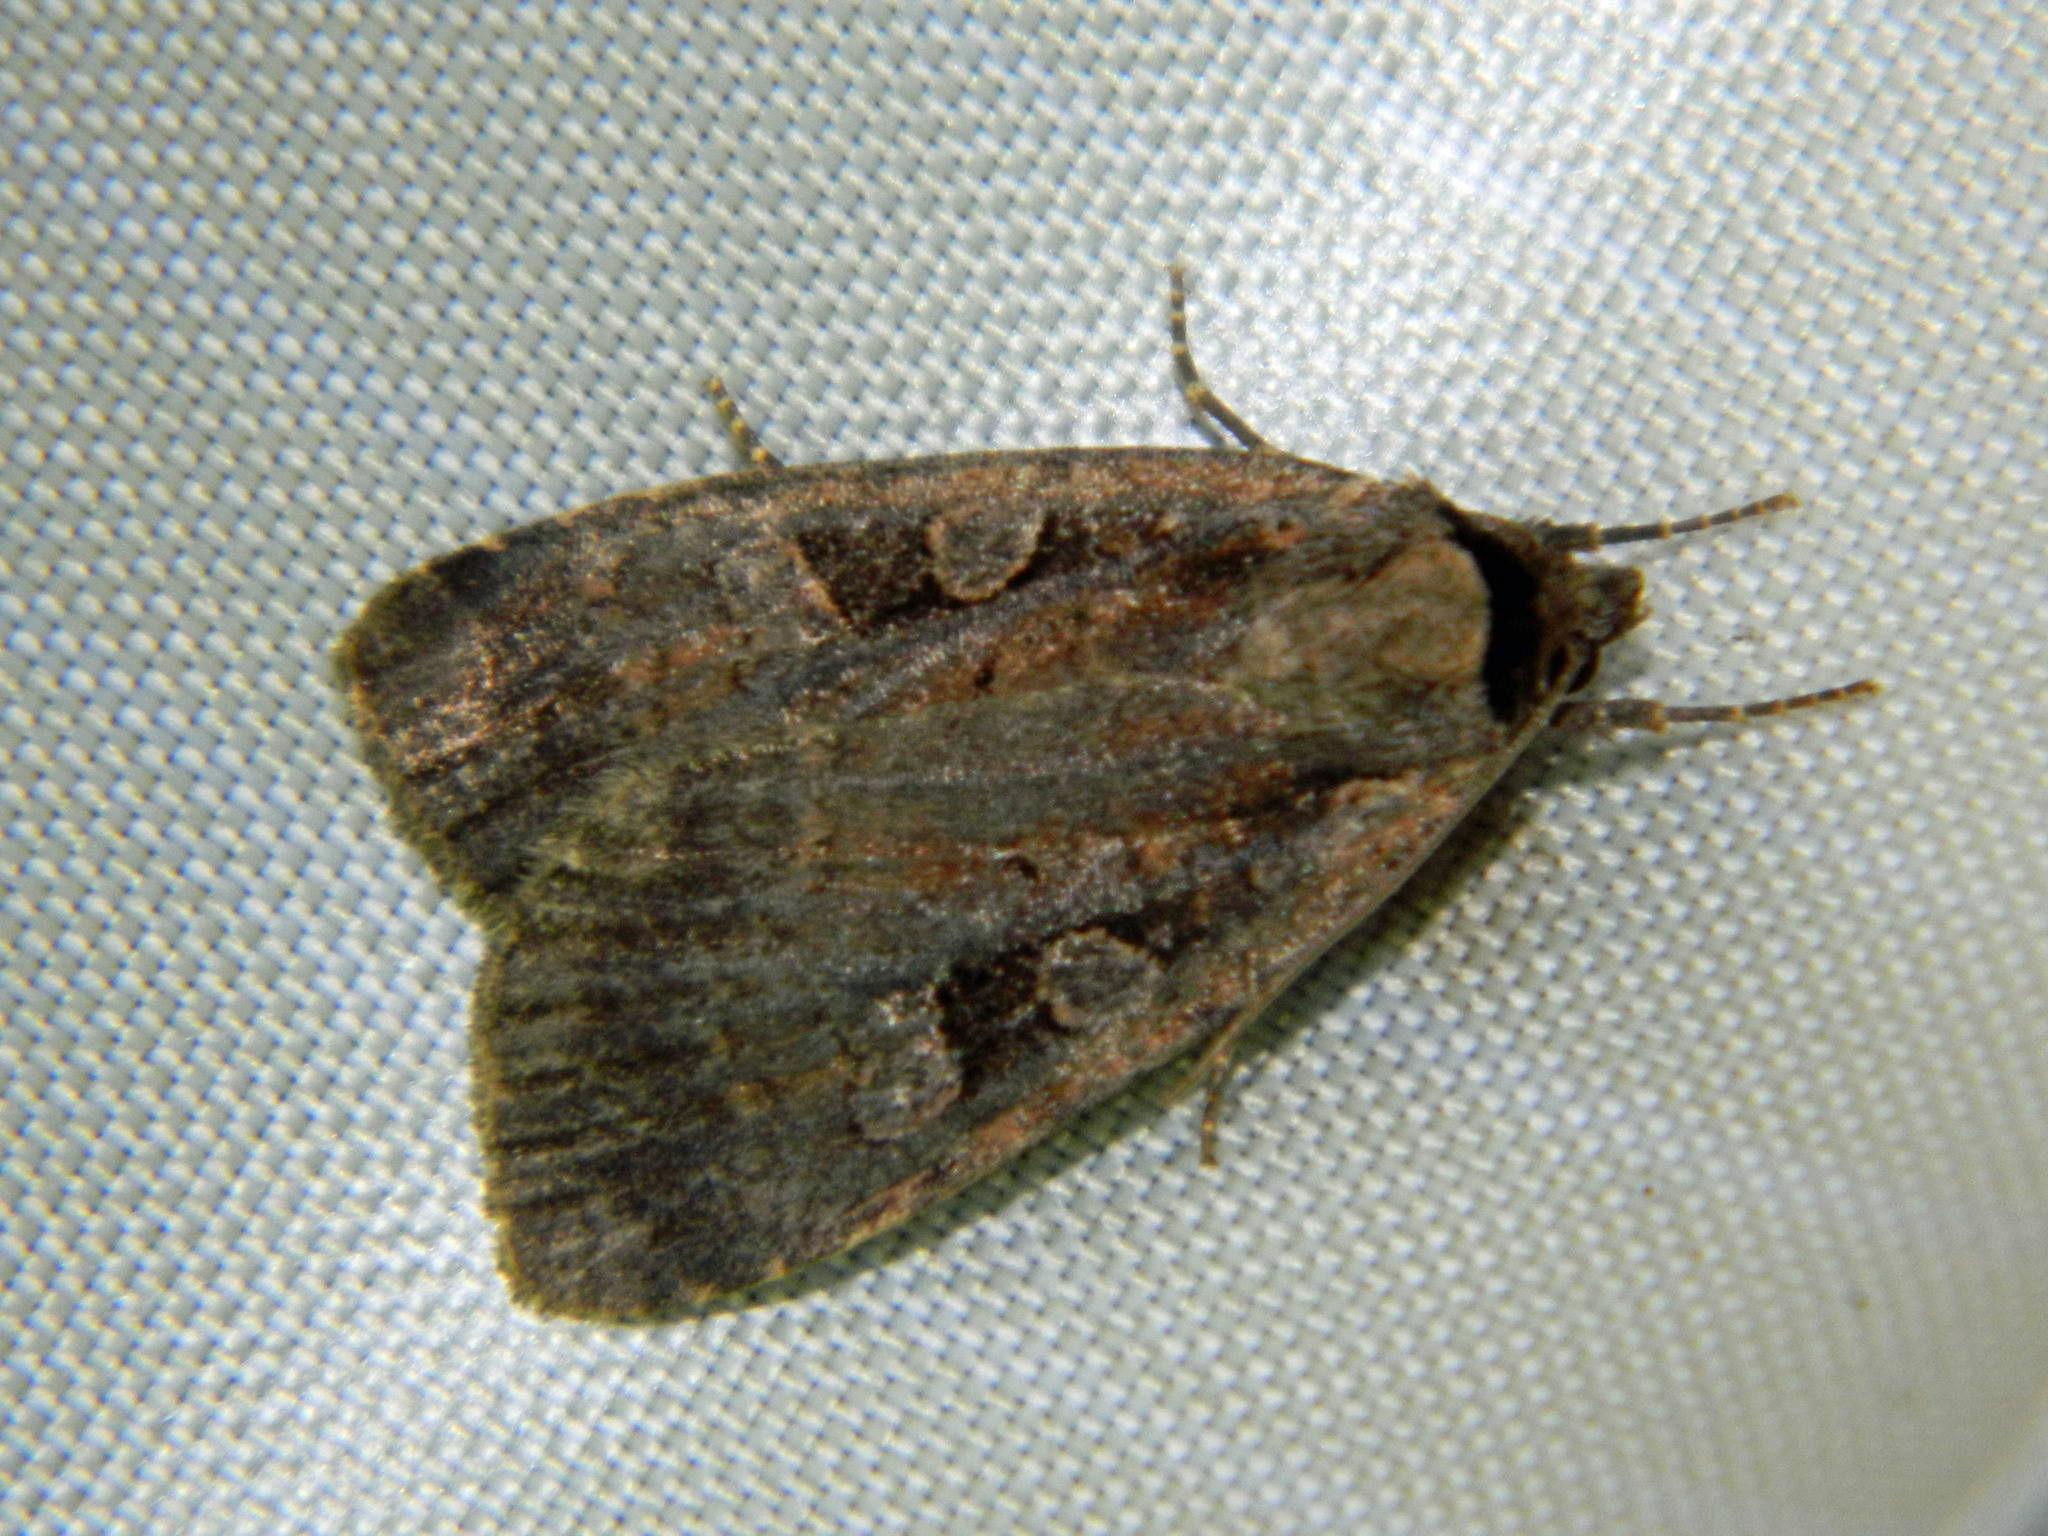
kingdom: Animalia
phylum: Arthropoda
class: Insecta
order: Lepidoptera
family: Noctuidae
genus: Eueretagrotis
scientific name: Eueretagrotis perattentus
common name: Two-spot dart moth
